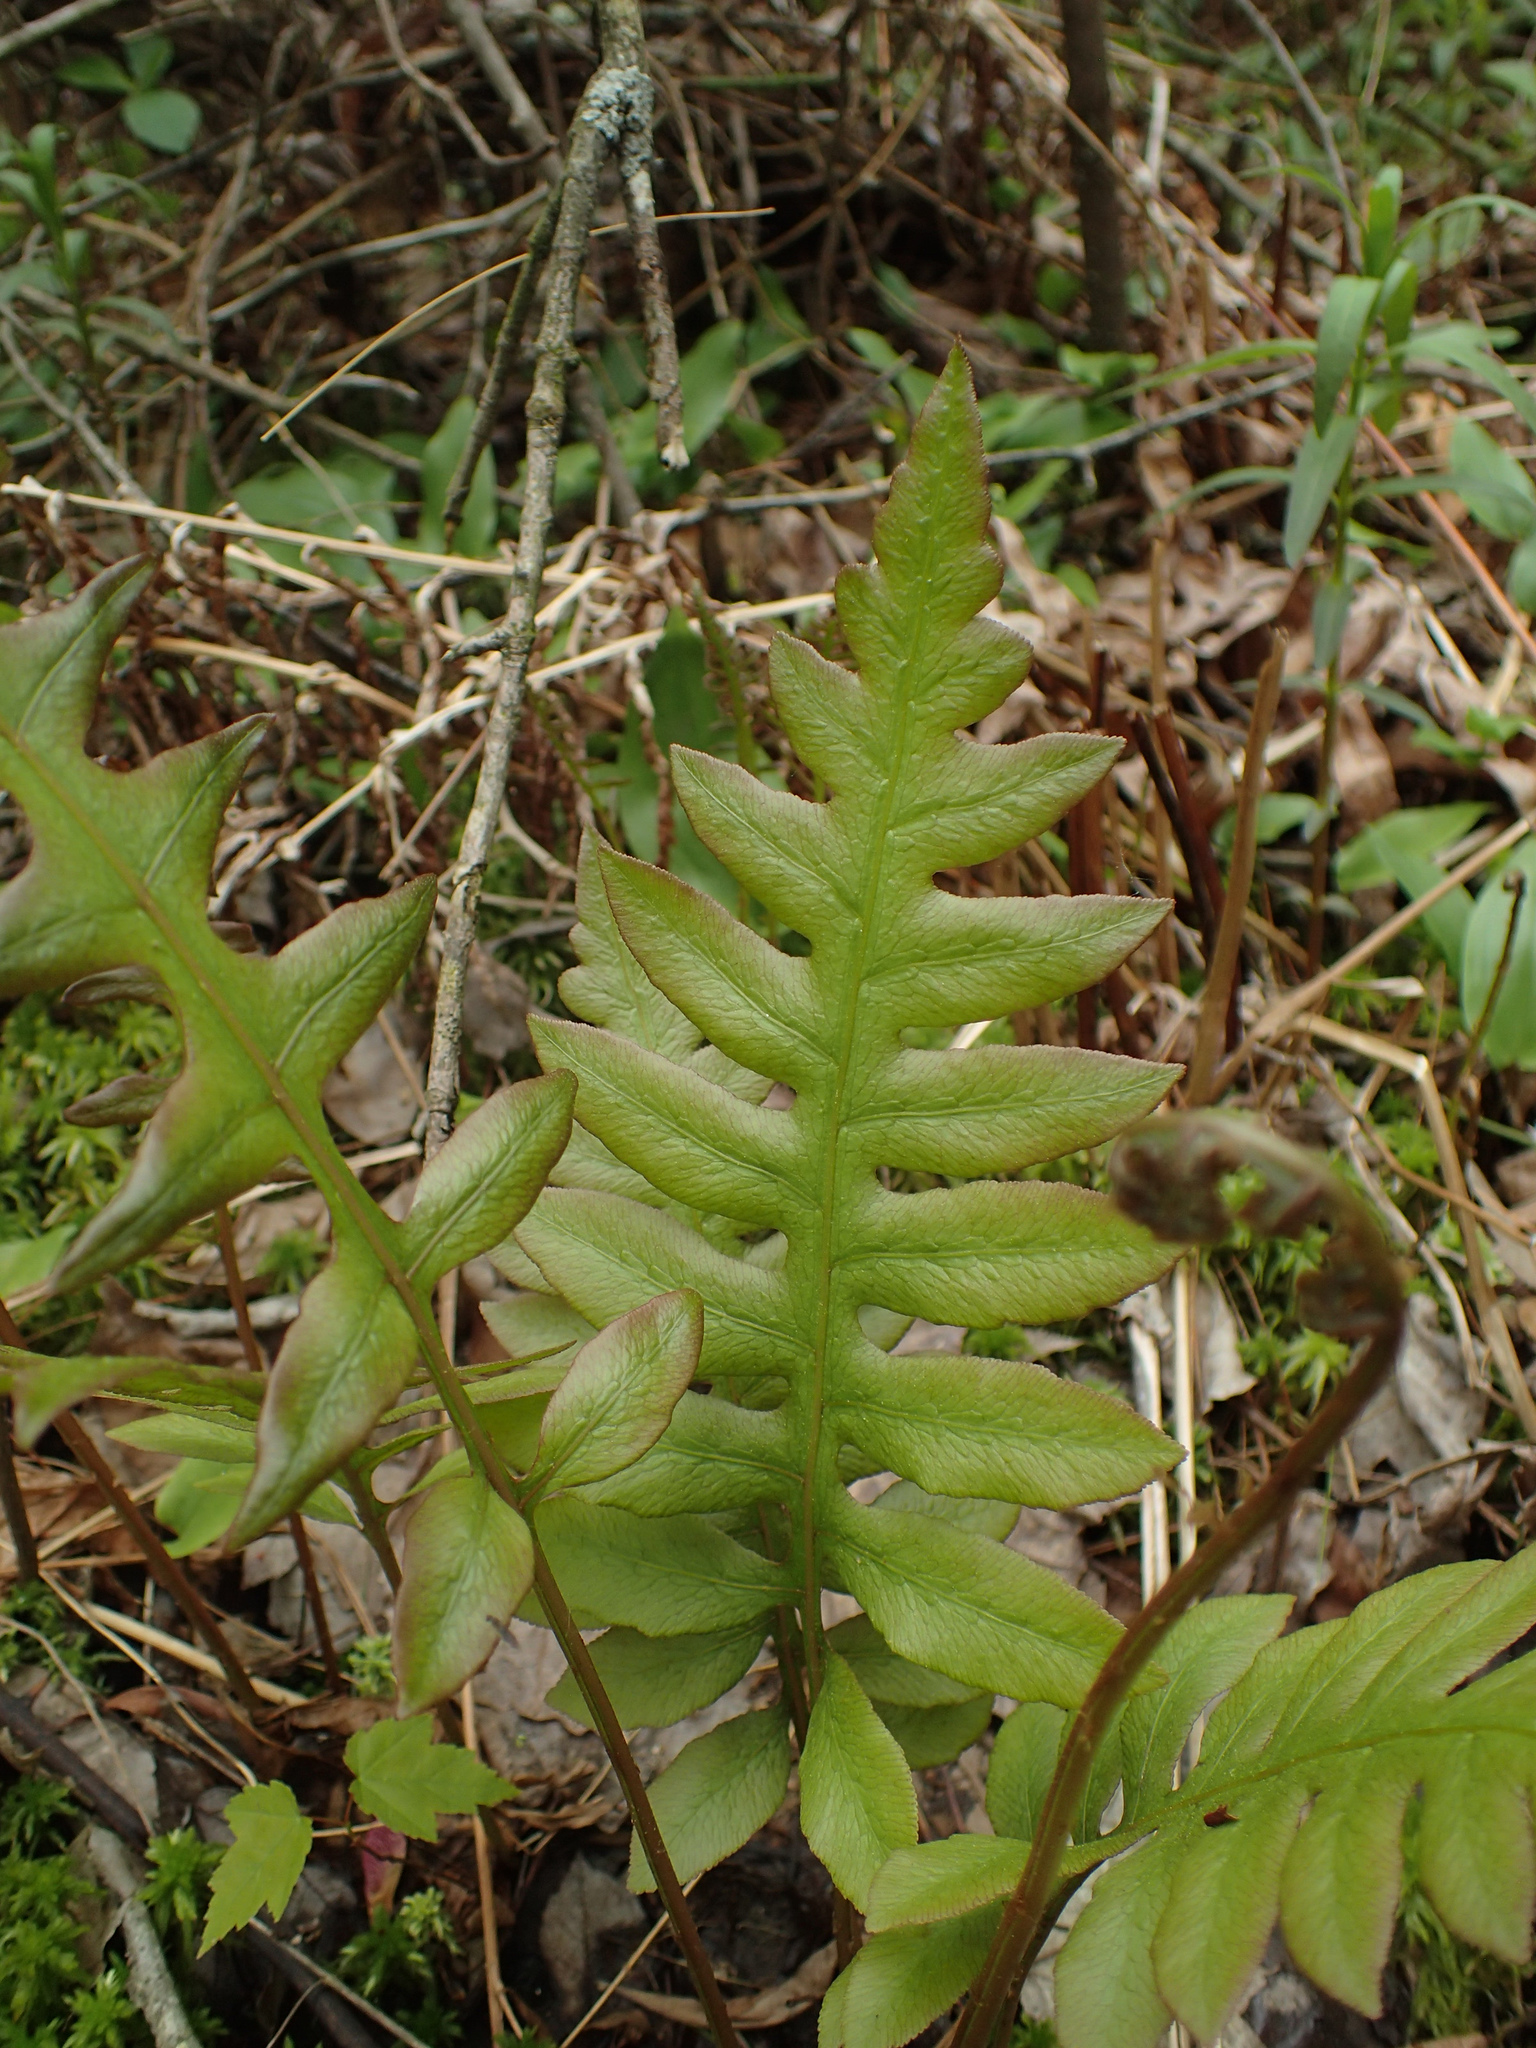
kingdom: Plantae
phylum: Tracheophyta
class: Polypodiopsida
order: Polypodiales
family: Blechnaceae
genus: Lorinseria
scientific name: Lorinseria areolata
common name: Dwarf chain fern
